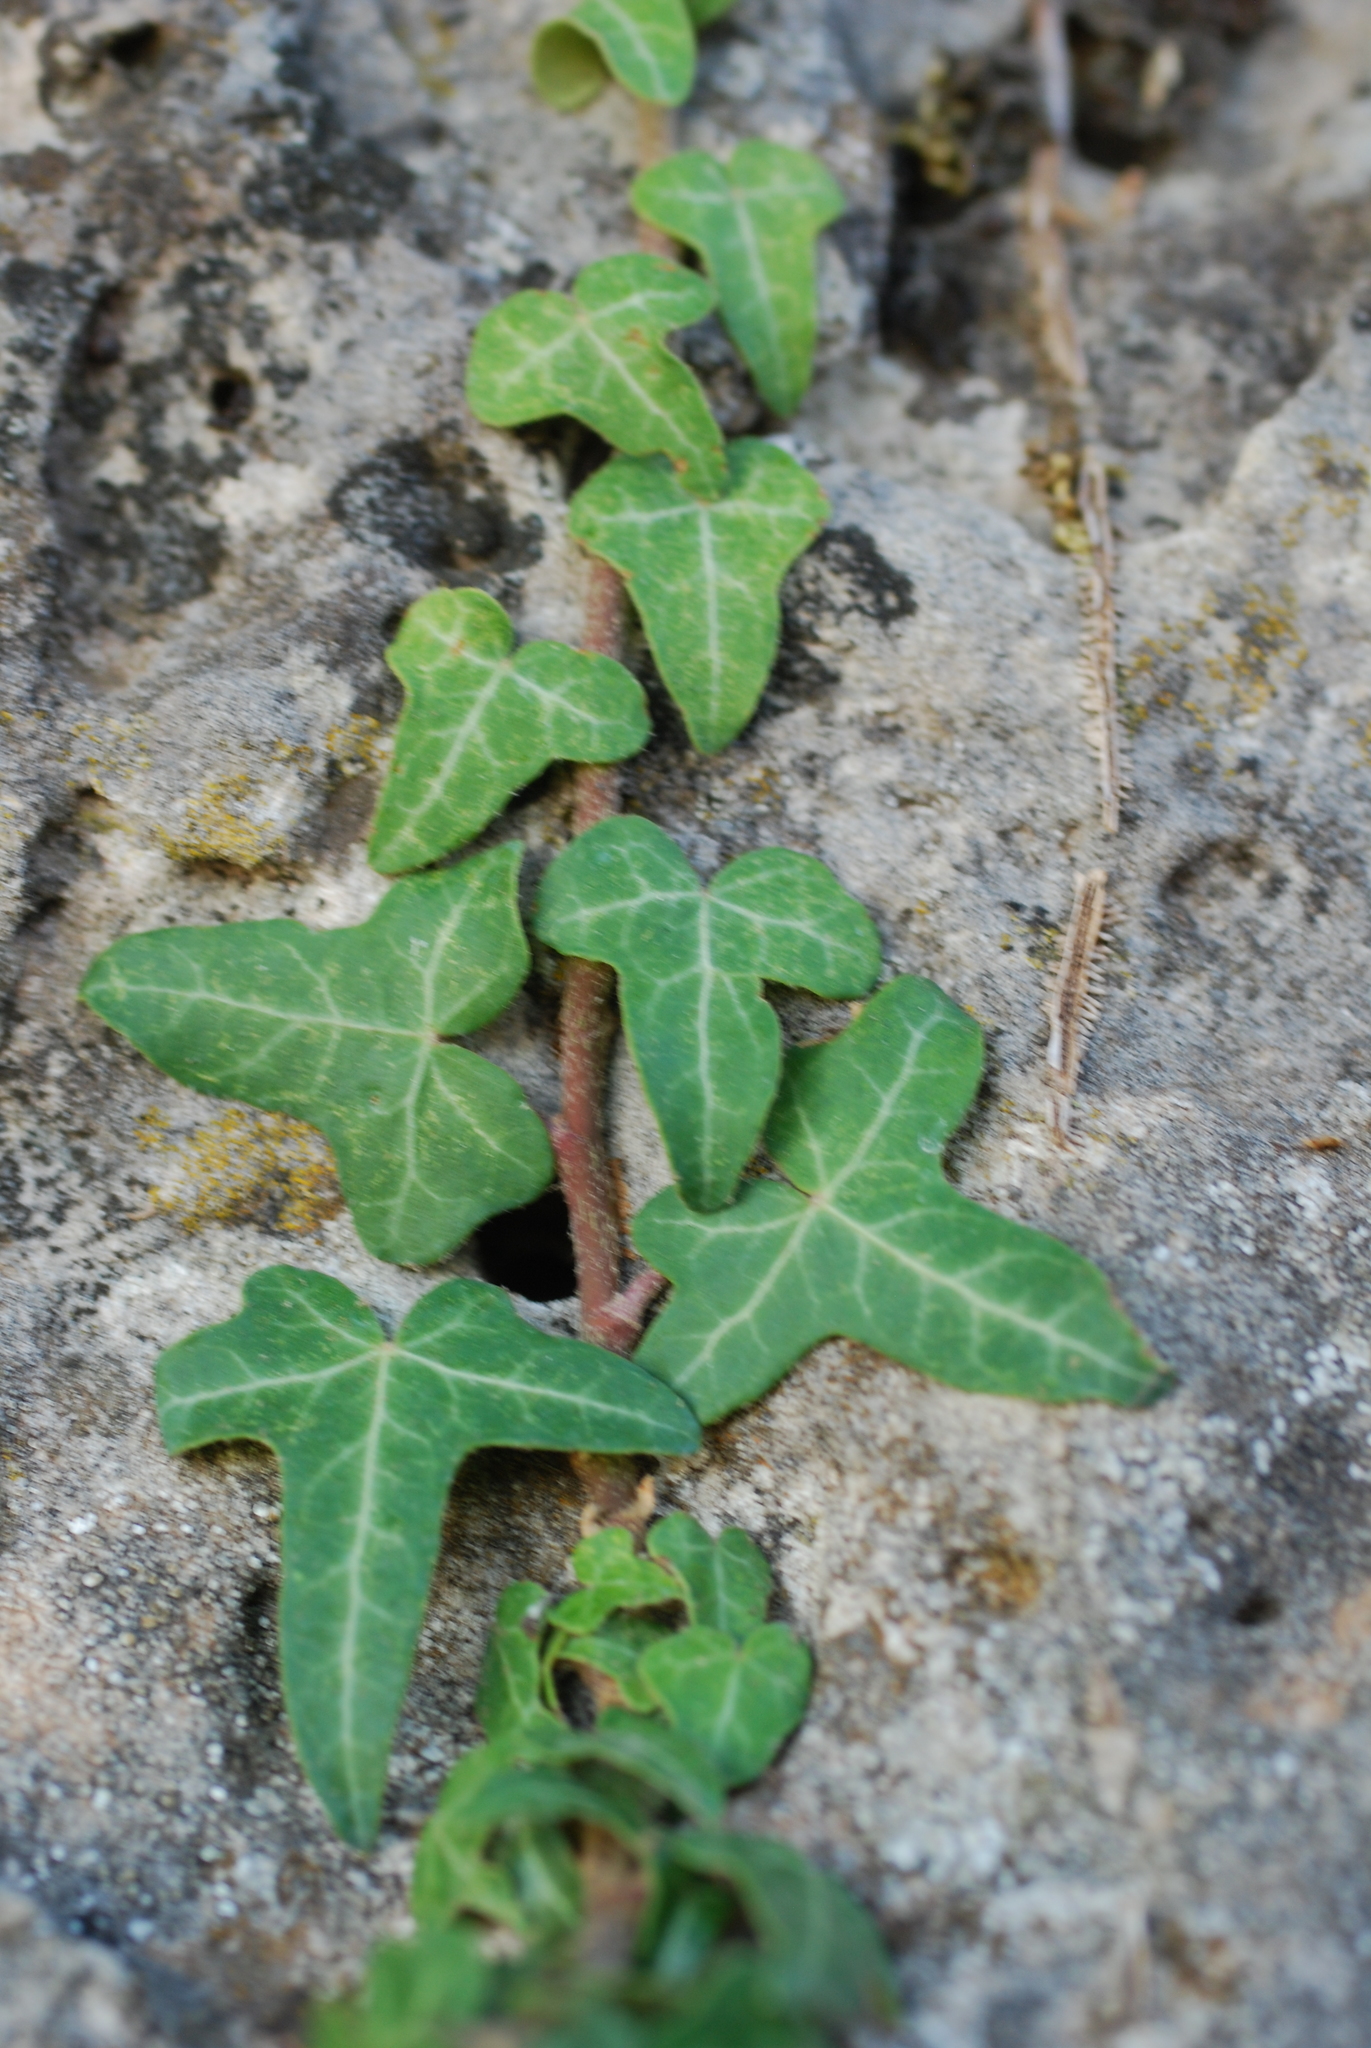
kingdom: Plantae
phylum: Tracheophyta
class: Magnoliopsida
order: Apiales
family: Araliaceae
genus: Hedera
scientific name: Hedera helix
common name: Ivy
